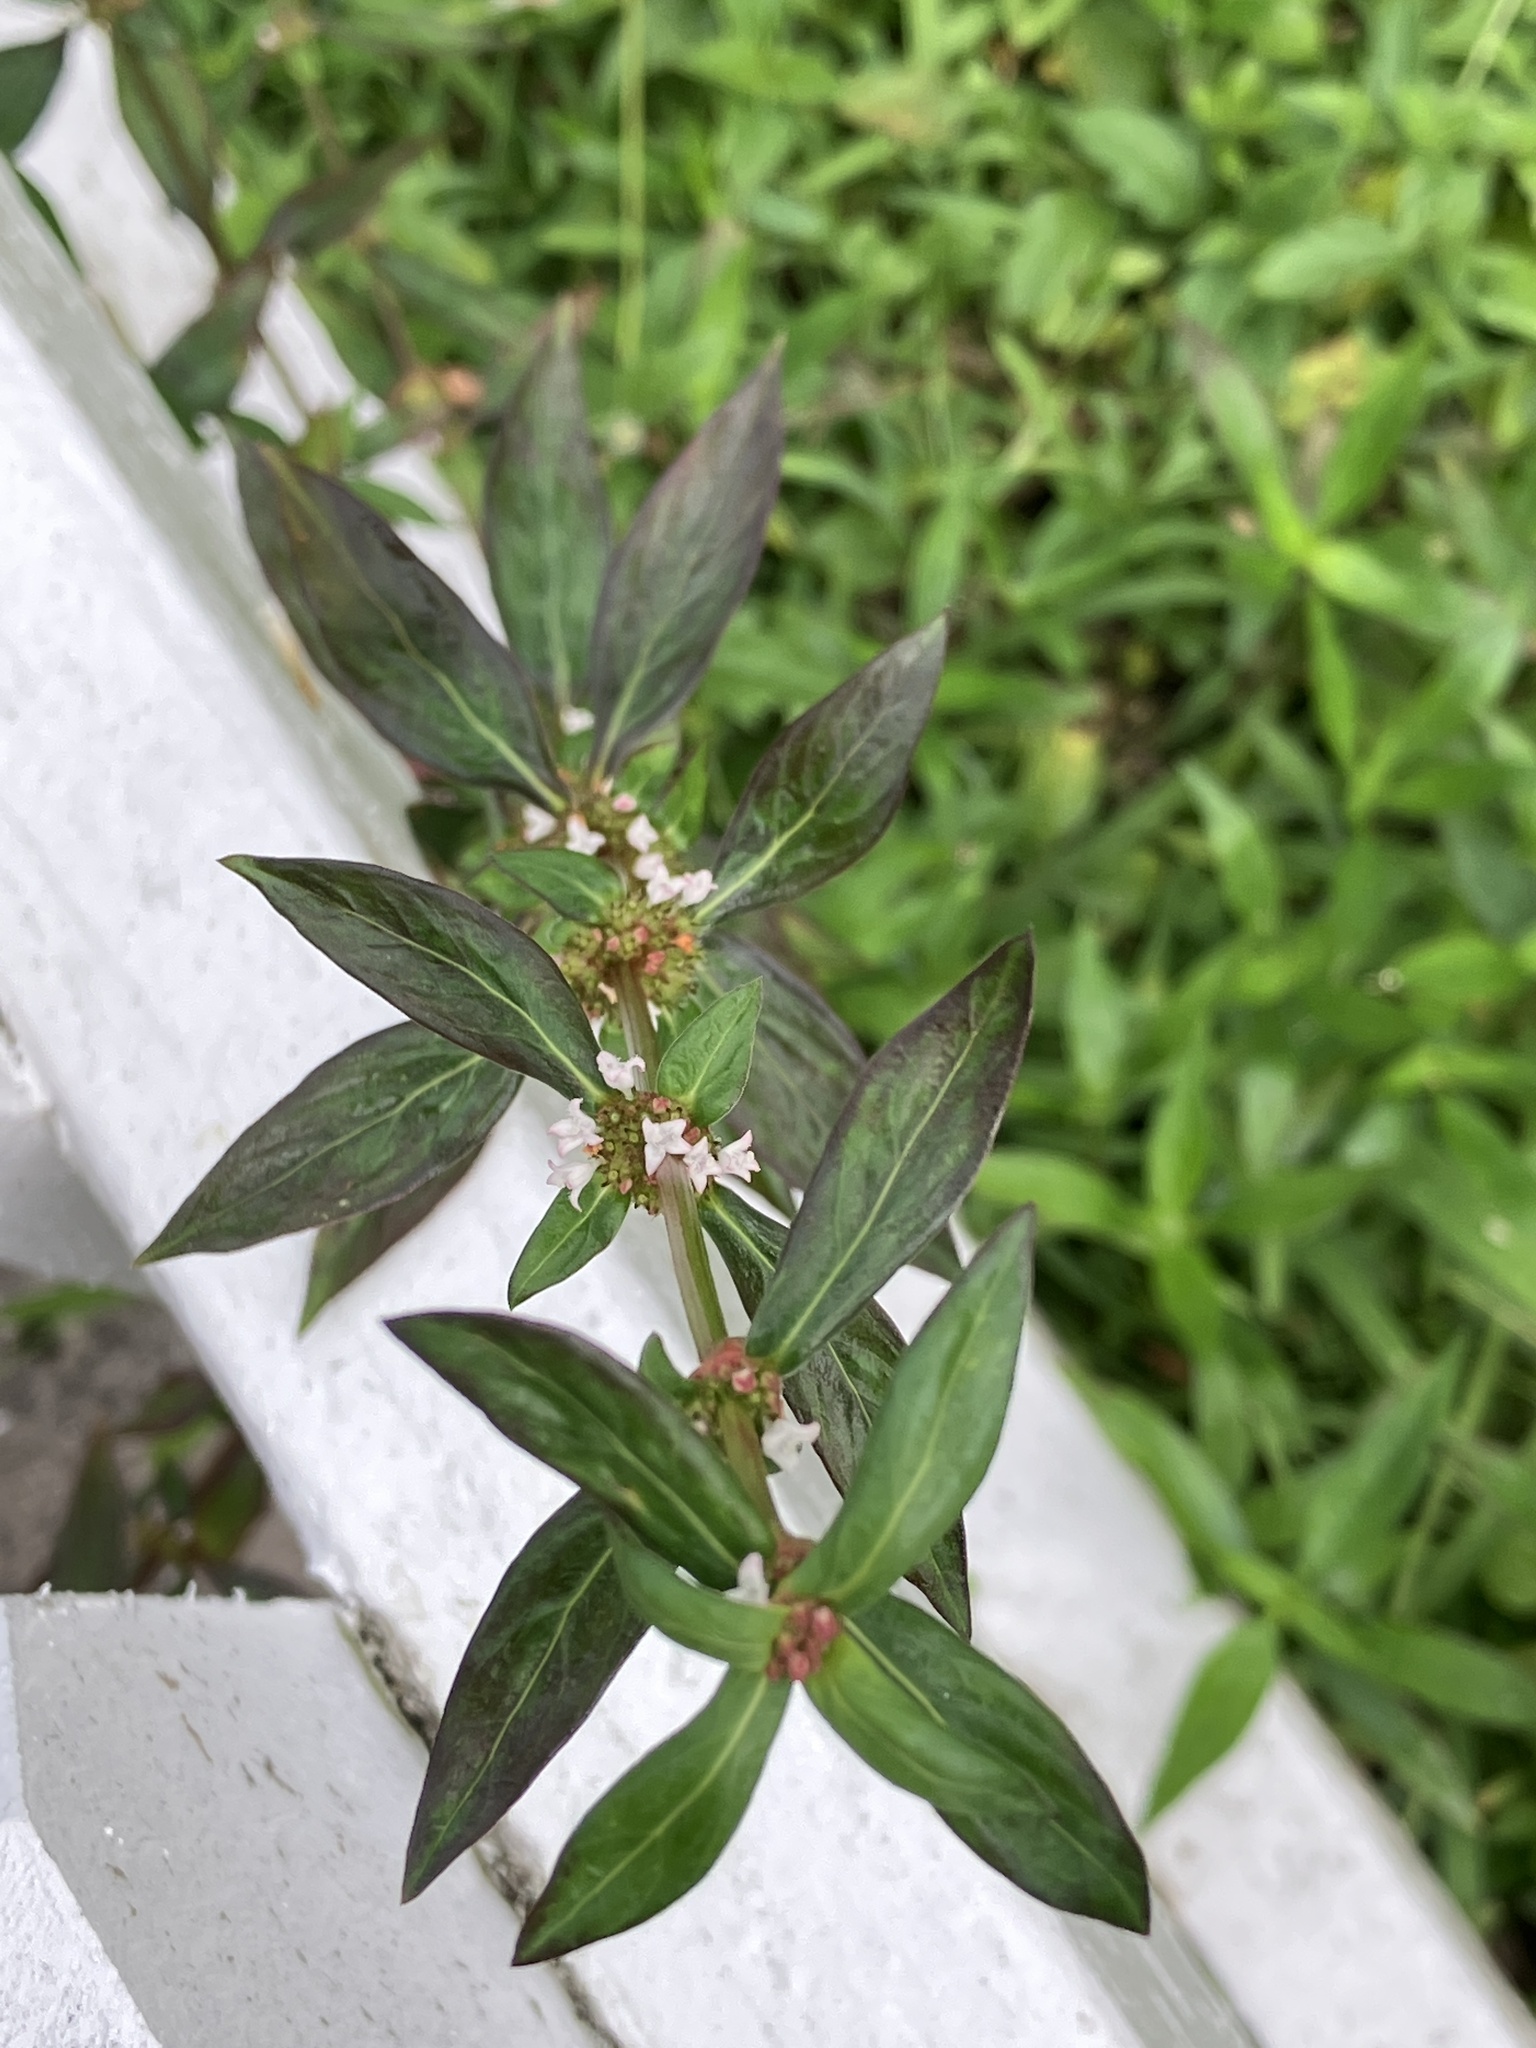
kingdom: Plantae
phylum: Tracheophyta
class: Magnoliopsida
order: Gentianales
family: Rubiaceae
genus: Spermacoce
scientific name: Spermacoce remota
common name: Woodland false buttonweed
